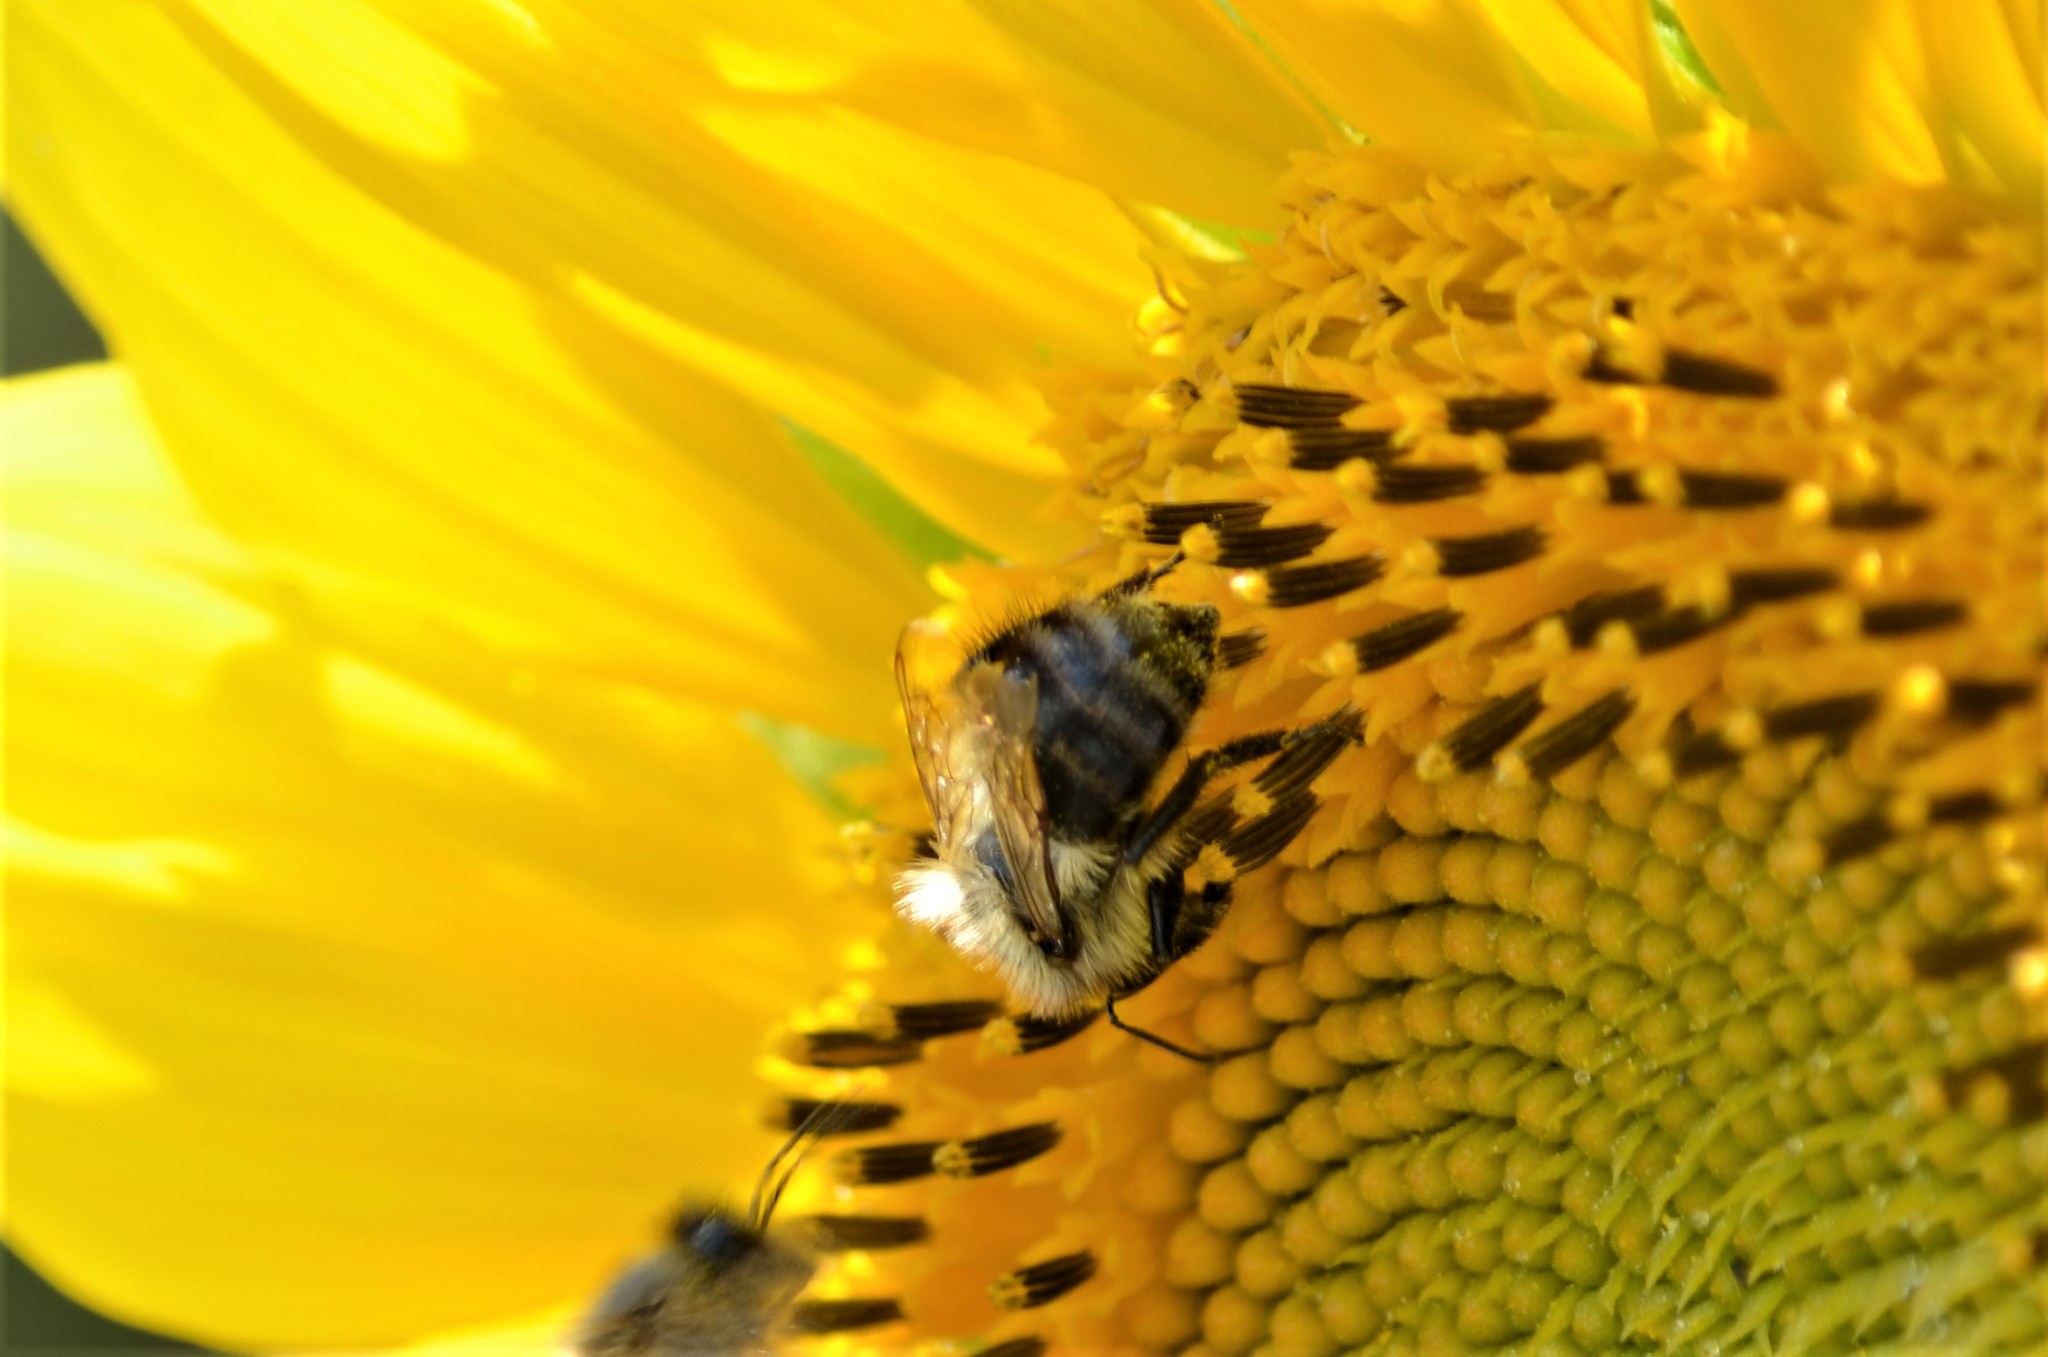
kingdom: Animalia
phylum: Arthropoda
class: Insecta
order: Hymenoptera
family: Apidae
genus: Bombus
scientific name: Bombus pascuorum
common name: Common carder bee
